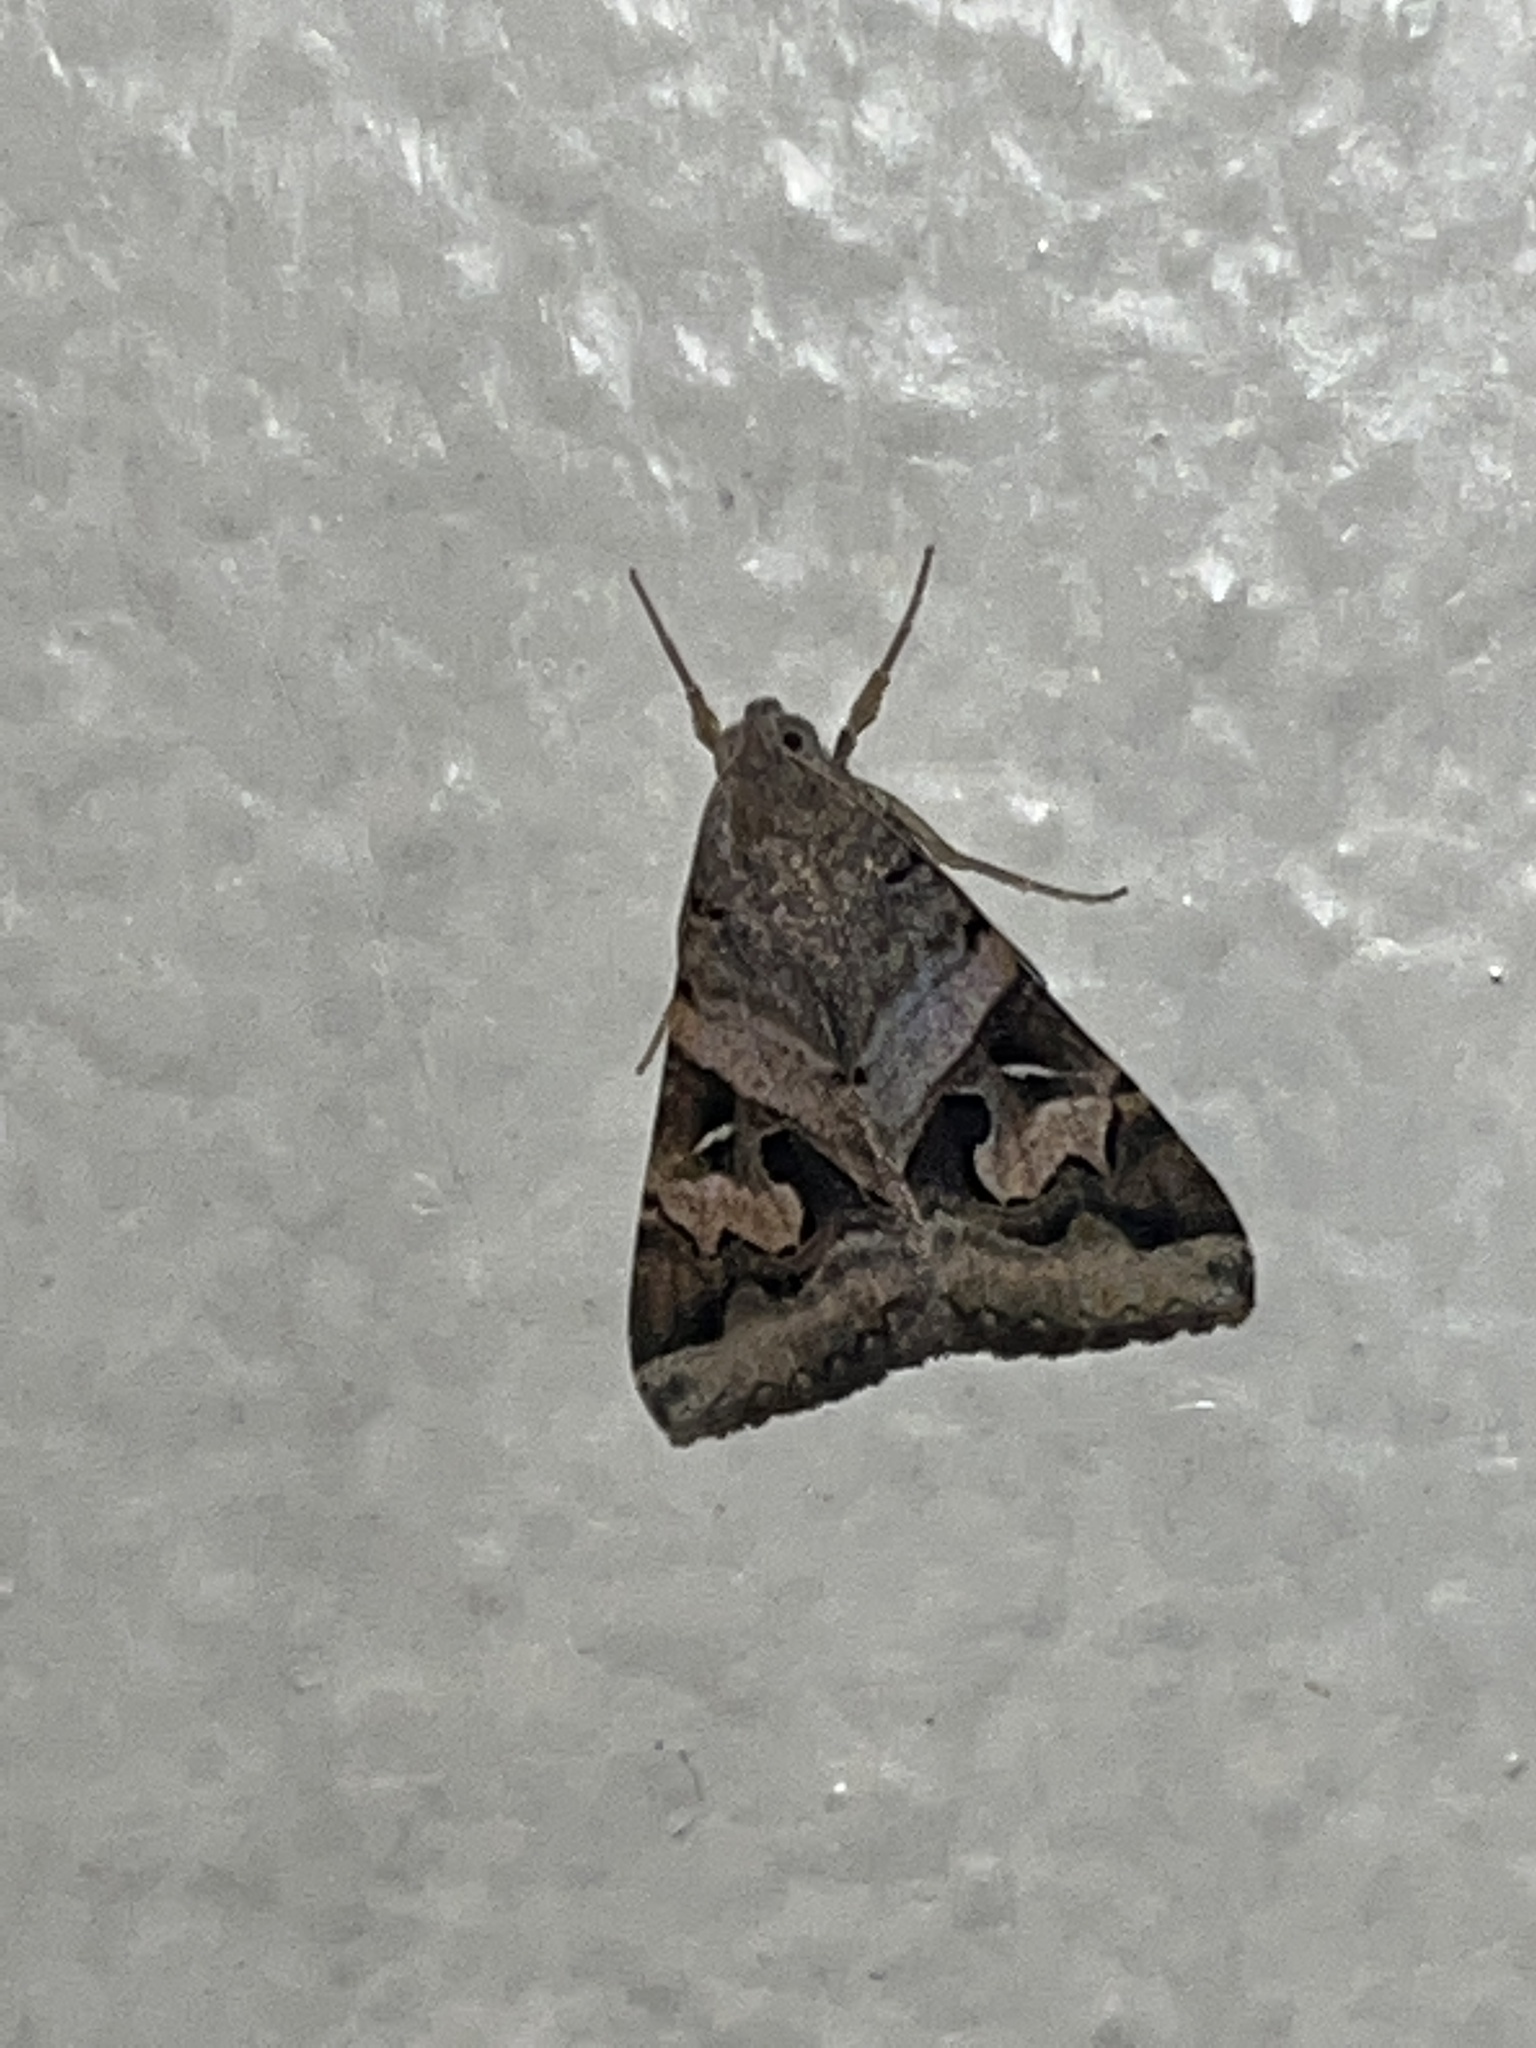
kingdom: Animalia
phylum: Arthropoda
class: Insecta
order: Lepidoptera
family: Erebidae
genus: Melipotis
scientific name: Melipotis indomita
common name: Moth
